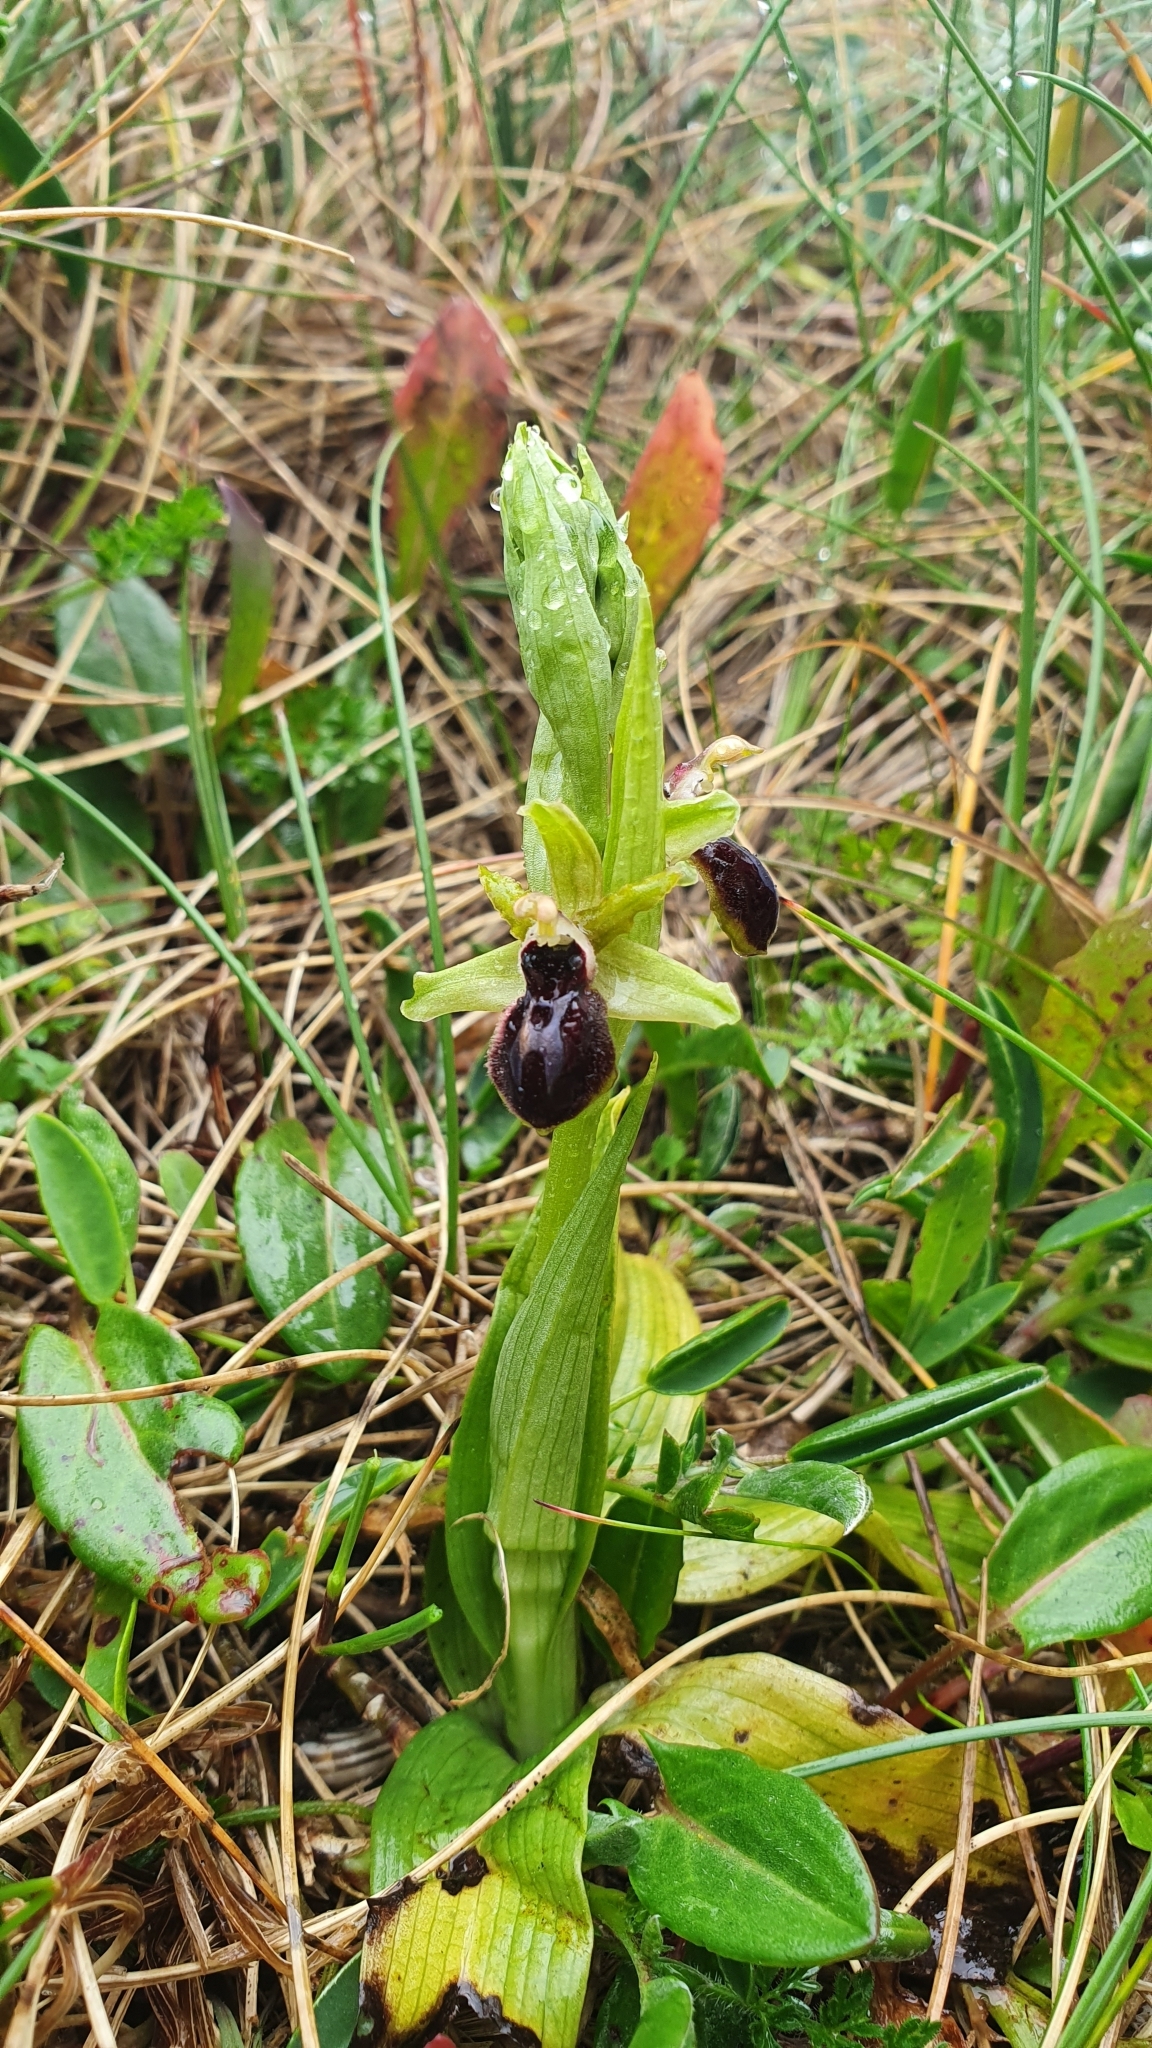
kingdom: Plantae
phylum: Tracheophyta
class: Liliopsida
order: Asparagales
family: Orchidaceae
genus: Ophrys
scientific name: Ophrys sphegodes
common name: Early spider-orchid
